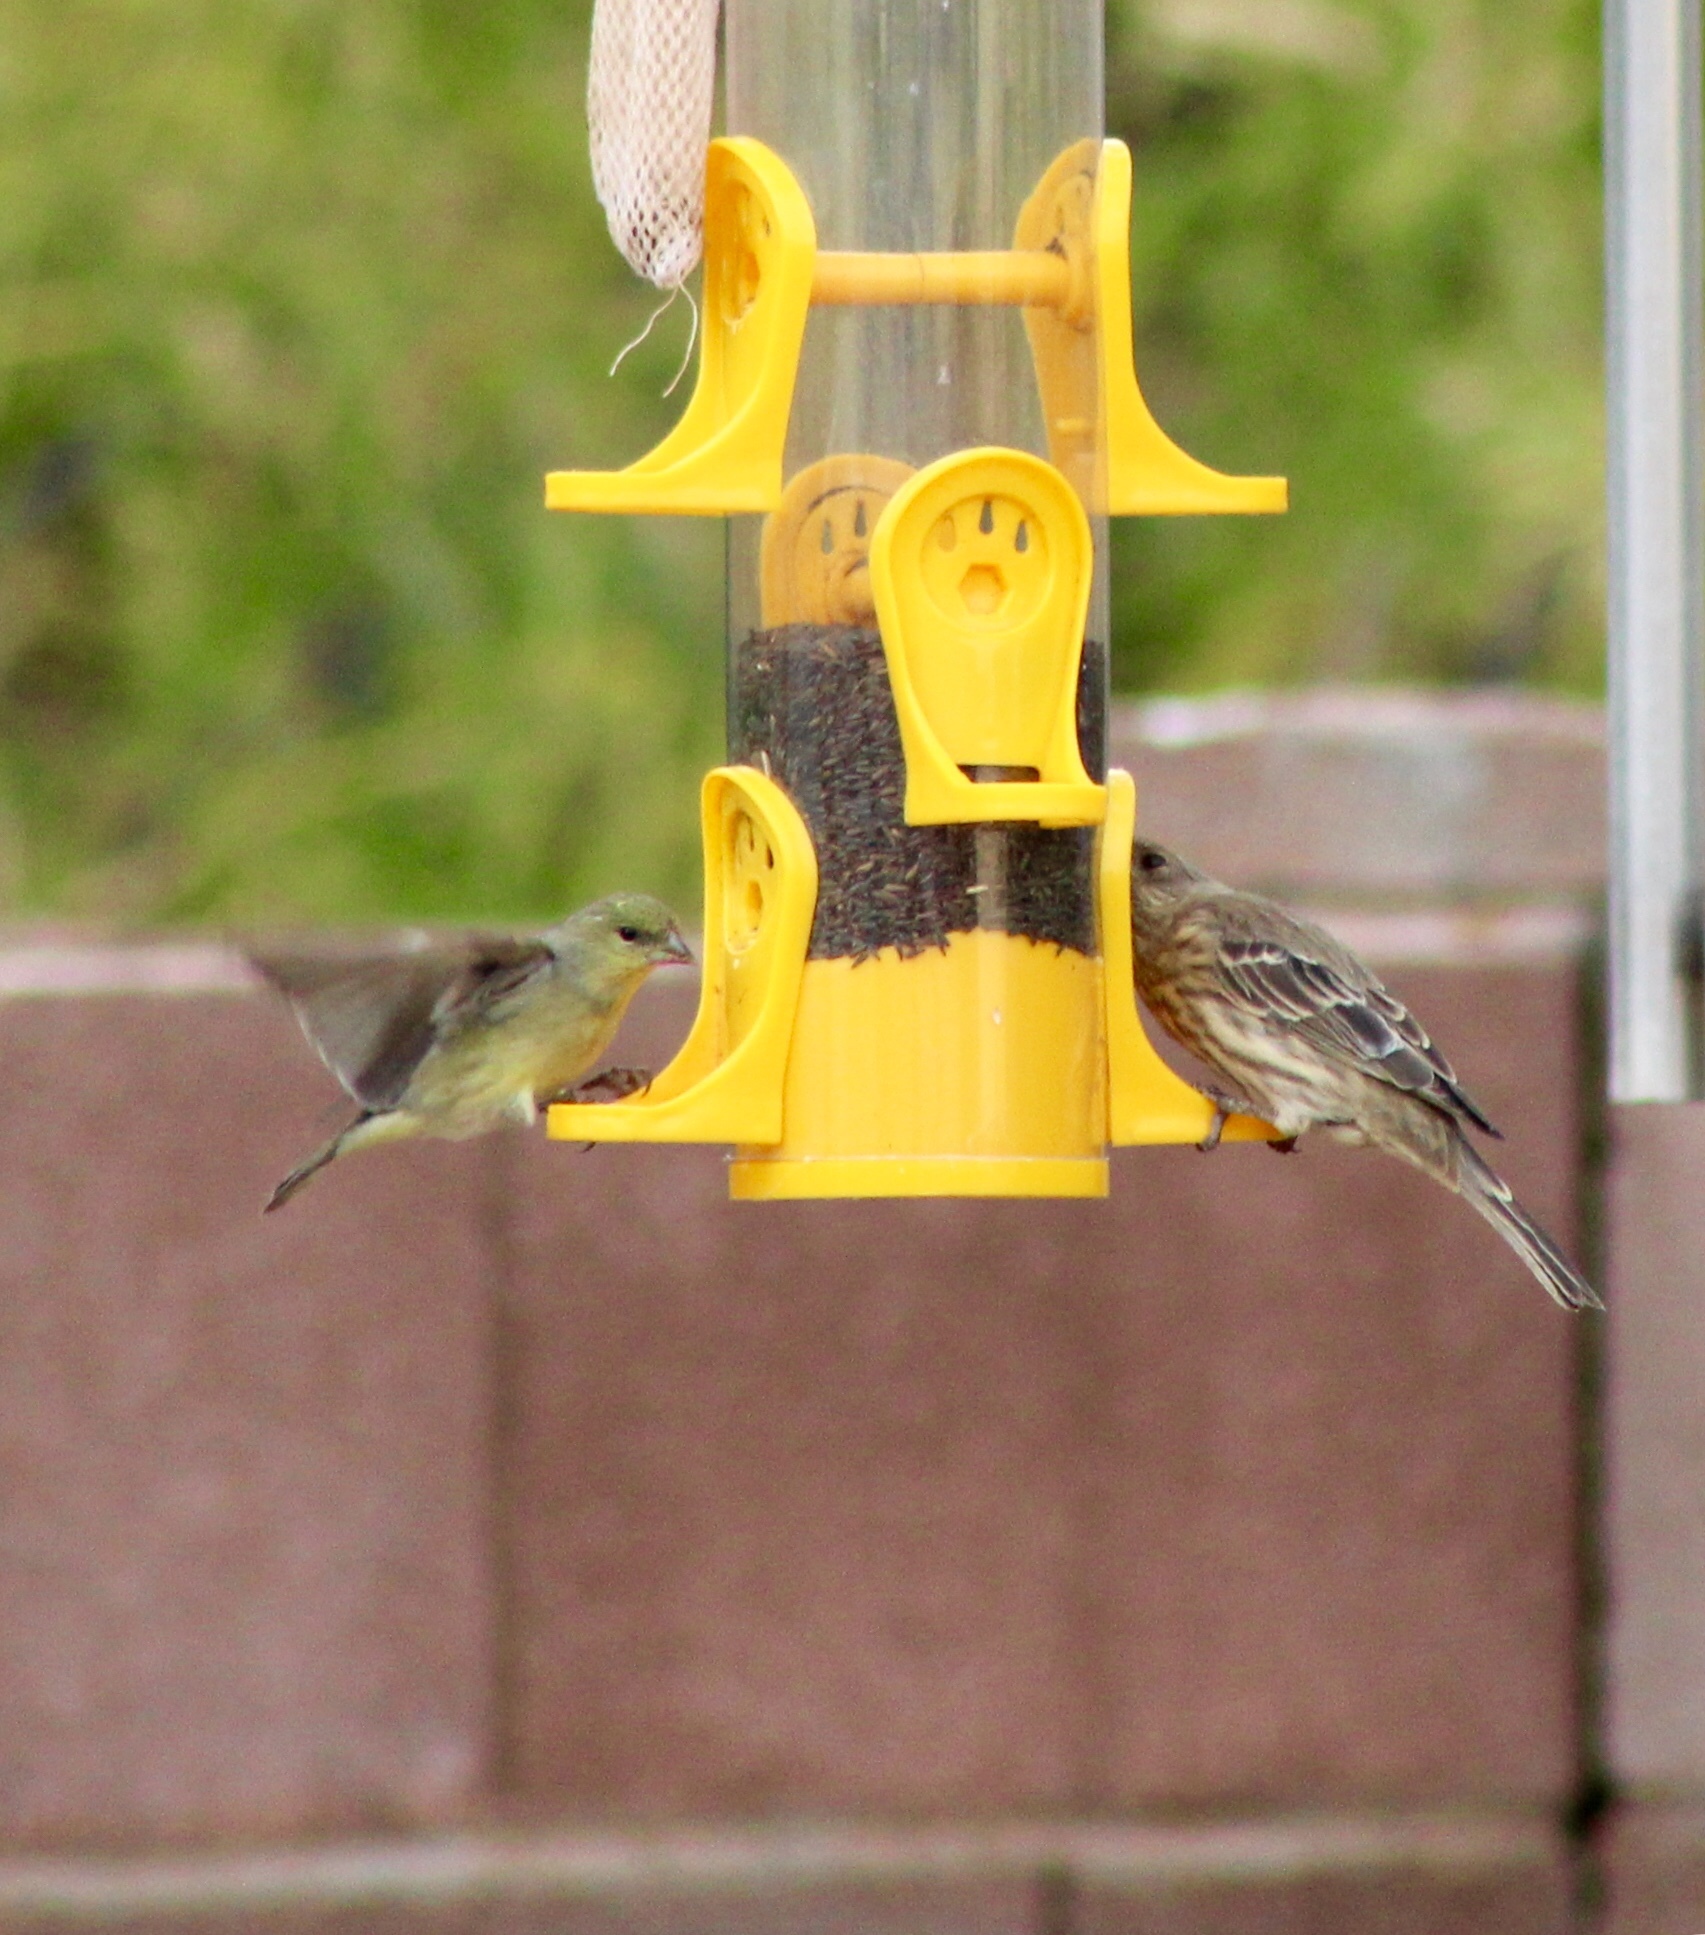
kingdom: Animalia
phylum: Chordata
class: Aves
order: Passeriformes
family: Fringillidae
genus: Spinus
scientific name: Spinus psaltria
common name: Lesser goldfinch
